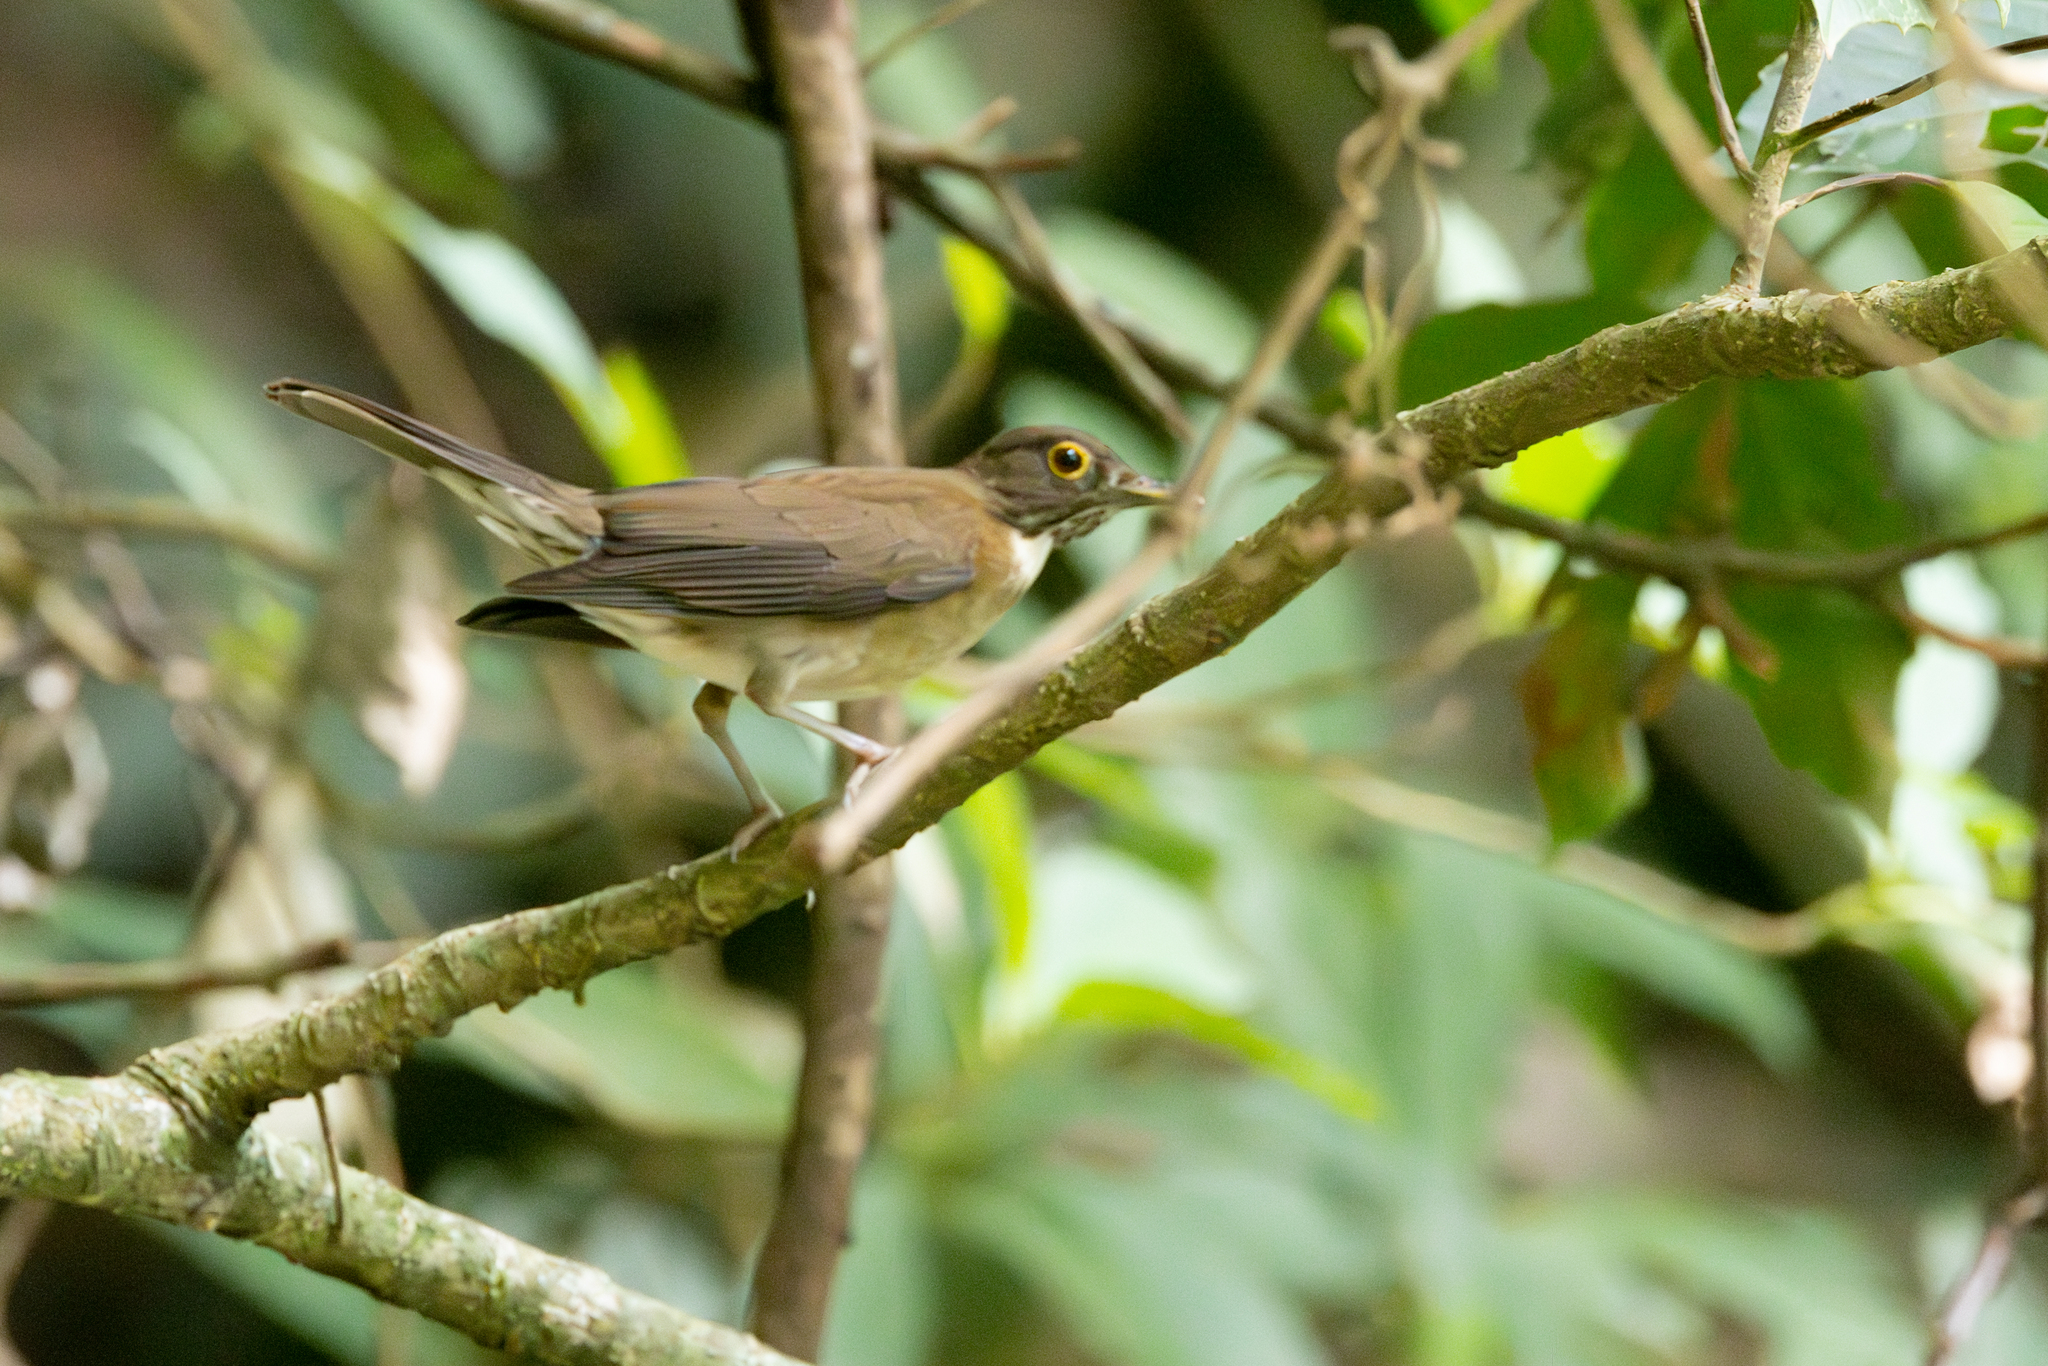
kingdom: Animalia
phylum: Chordata
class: Aves
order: Passeriformes
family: Turdidae
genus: Turdus
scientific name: Turdus assimilis
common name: White-throated thrush
